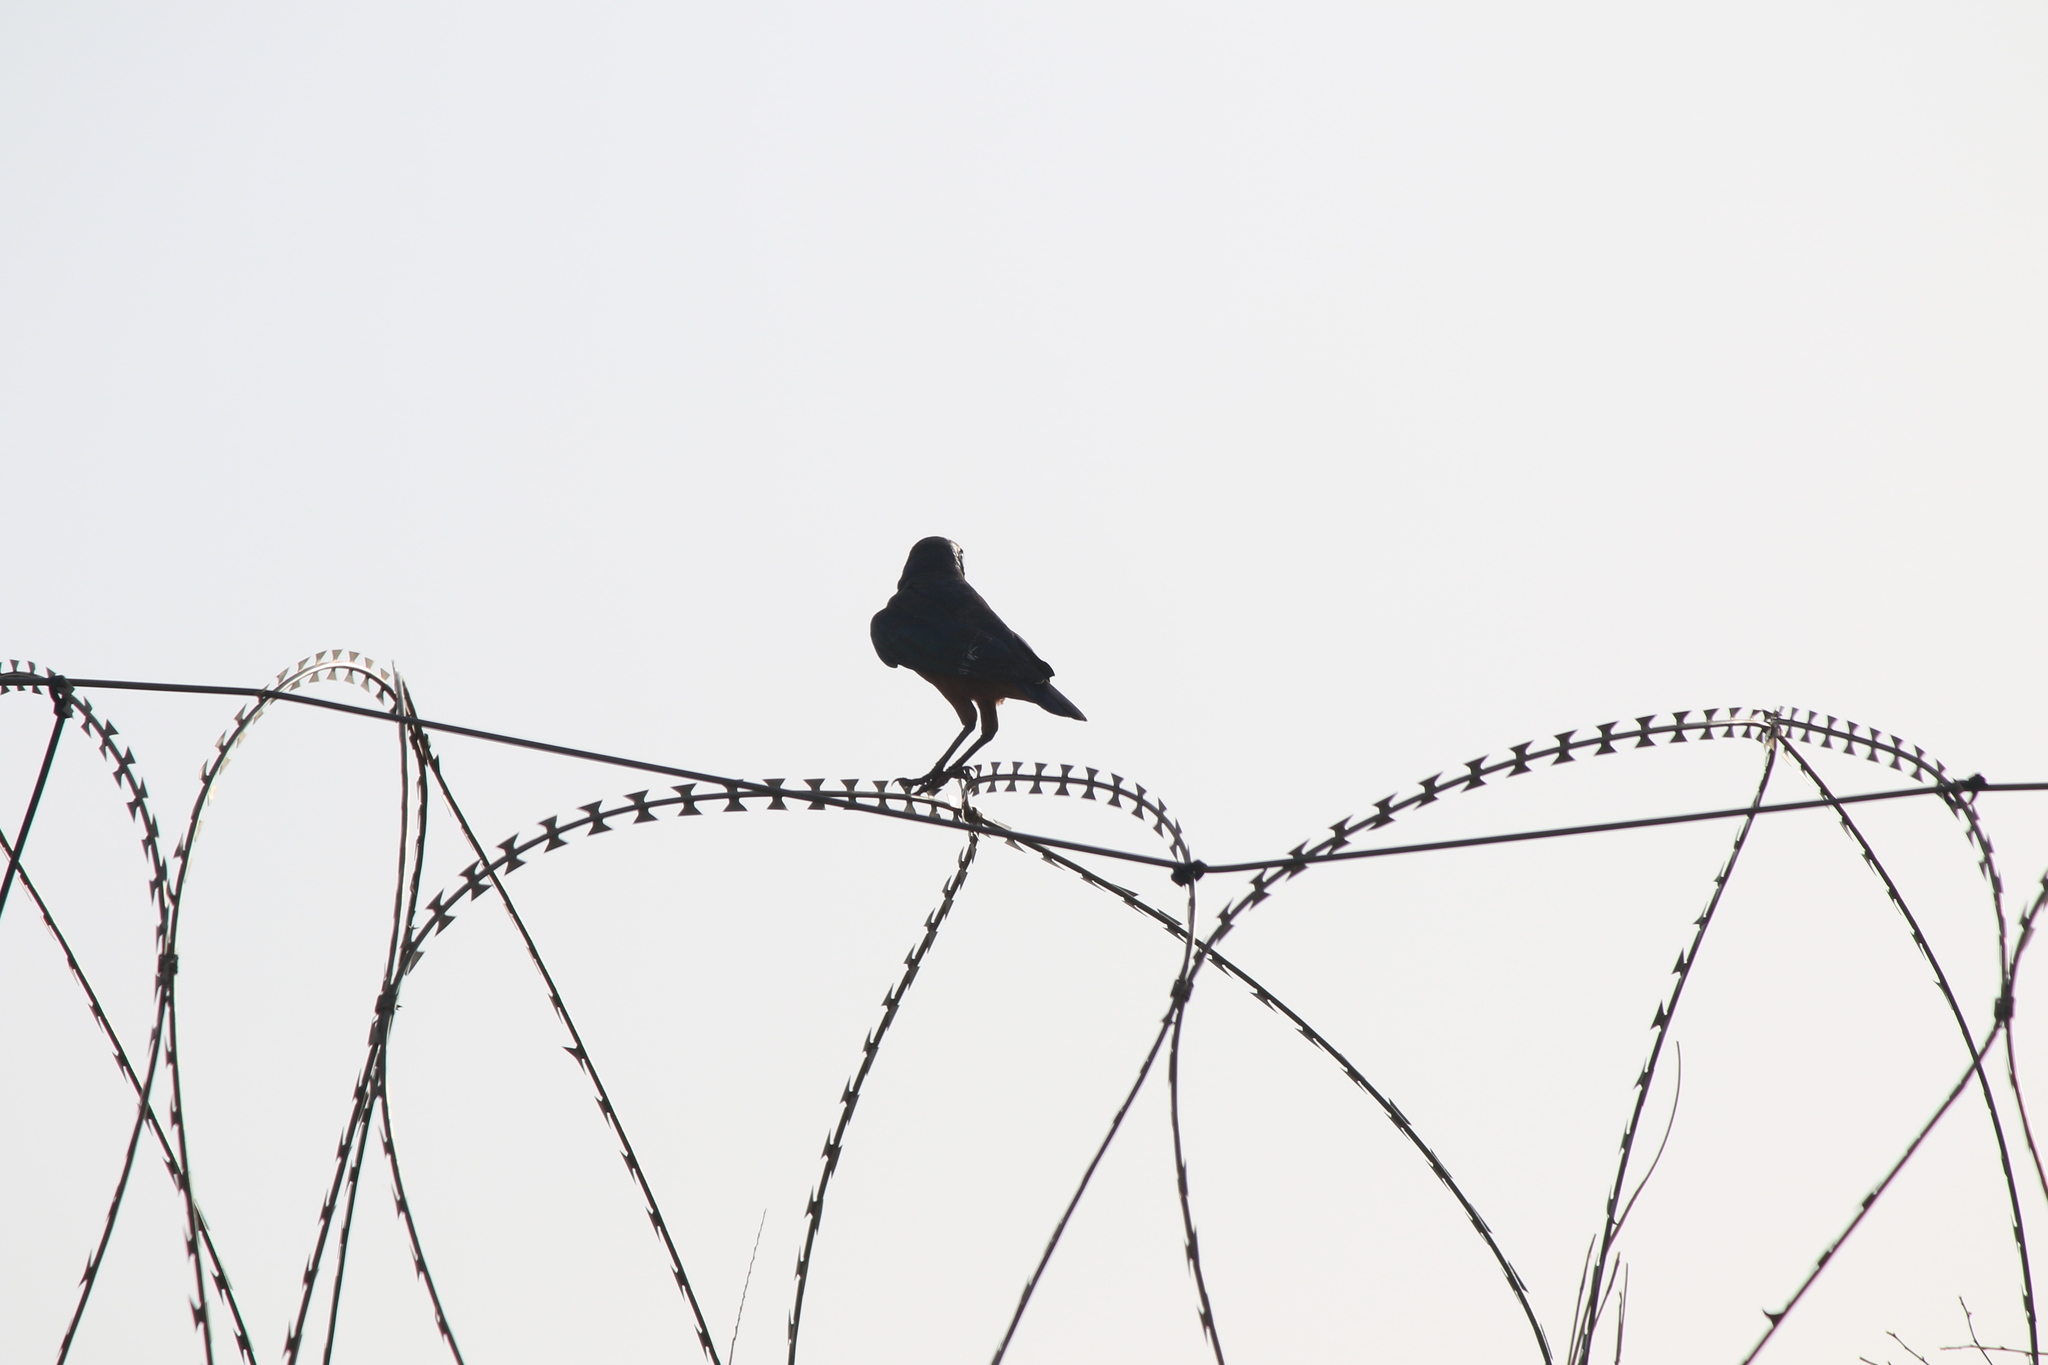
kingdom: Animalia
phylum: Chordata
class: Aves
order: Passeriformes
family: Sturnidae
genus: Lamprotornis
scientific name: Lamprotornis pulcher
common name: Chestnut-bellied starling
